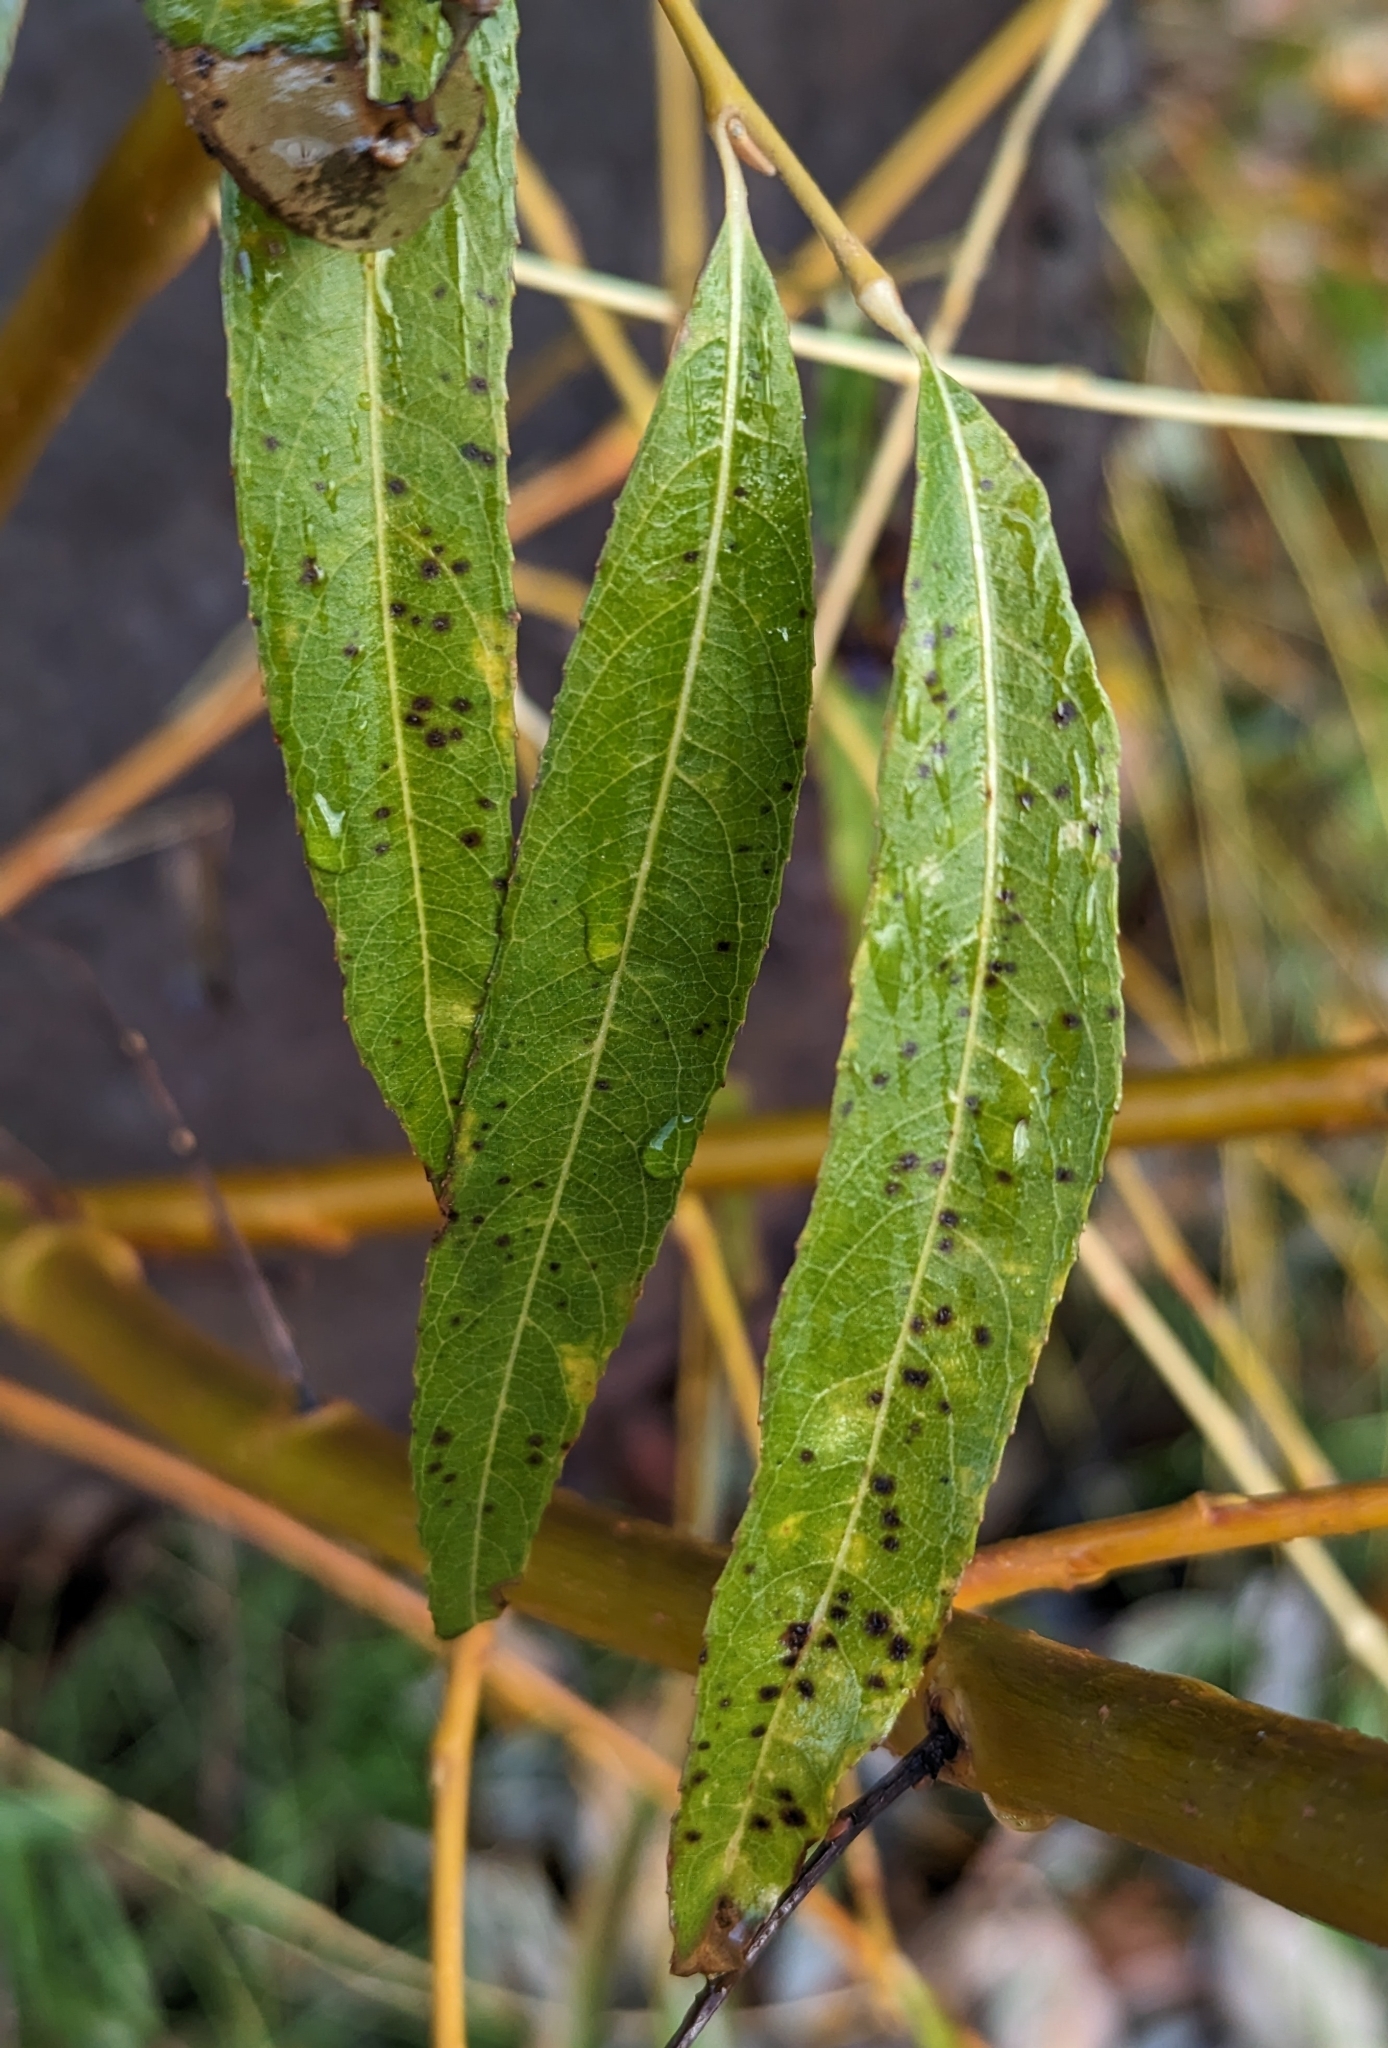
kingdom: Plantae
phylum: Tracheophyta
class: Magnoliopsida
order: Malpighiales
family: Salicaceae
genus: Salix
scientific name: Salix pendulina
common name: Wisconsin weeping willow
